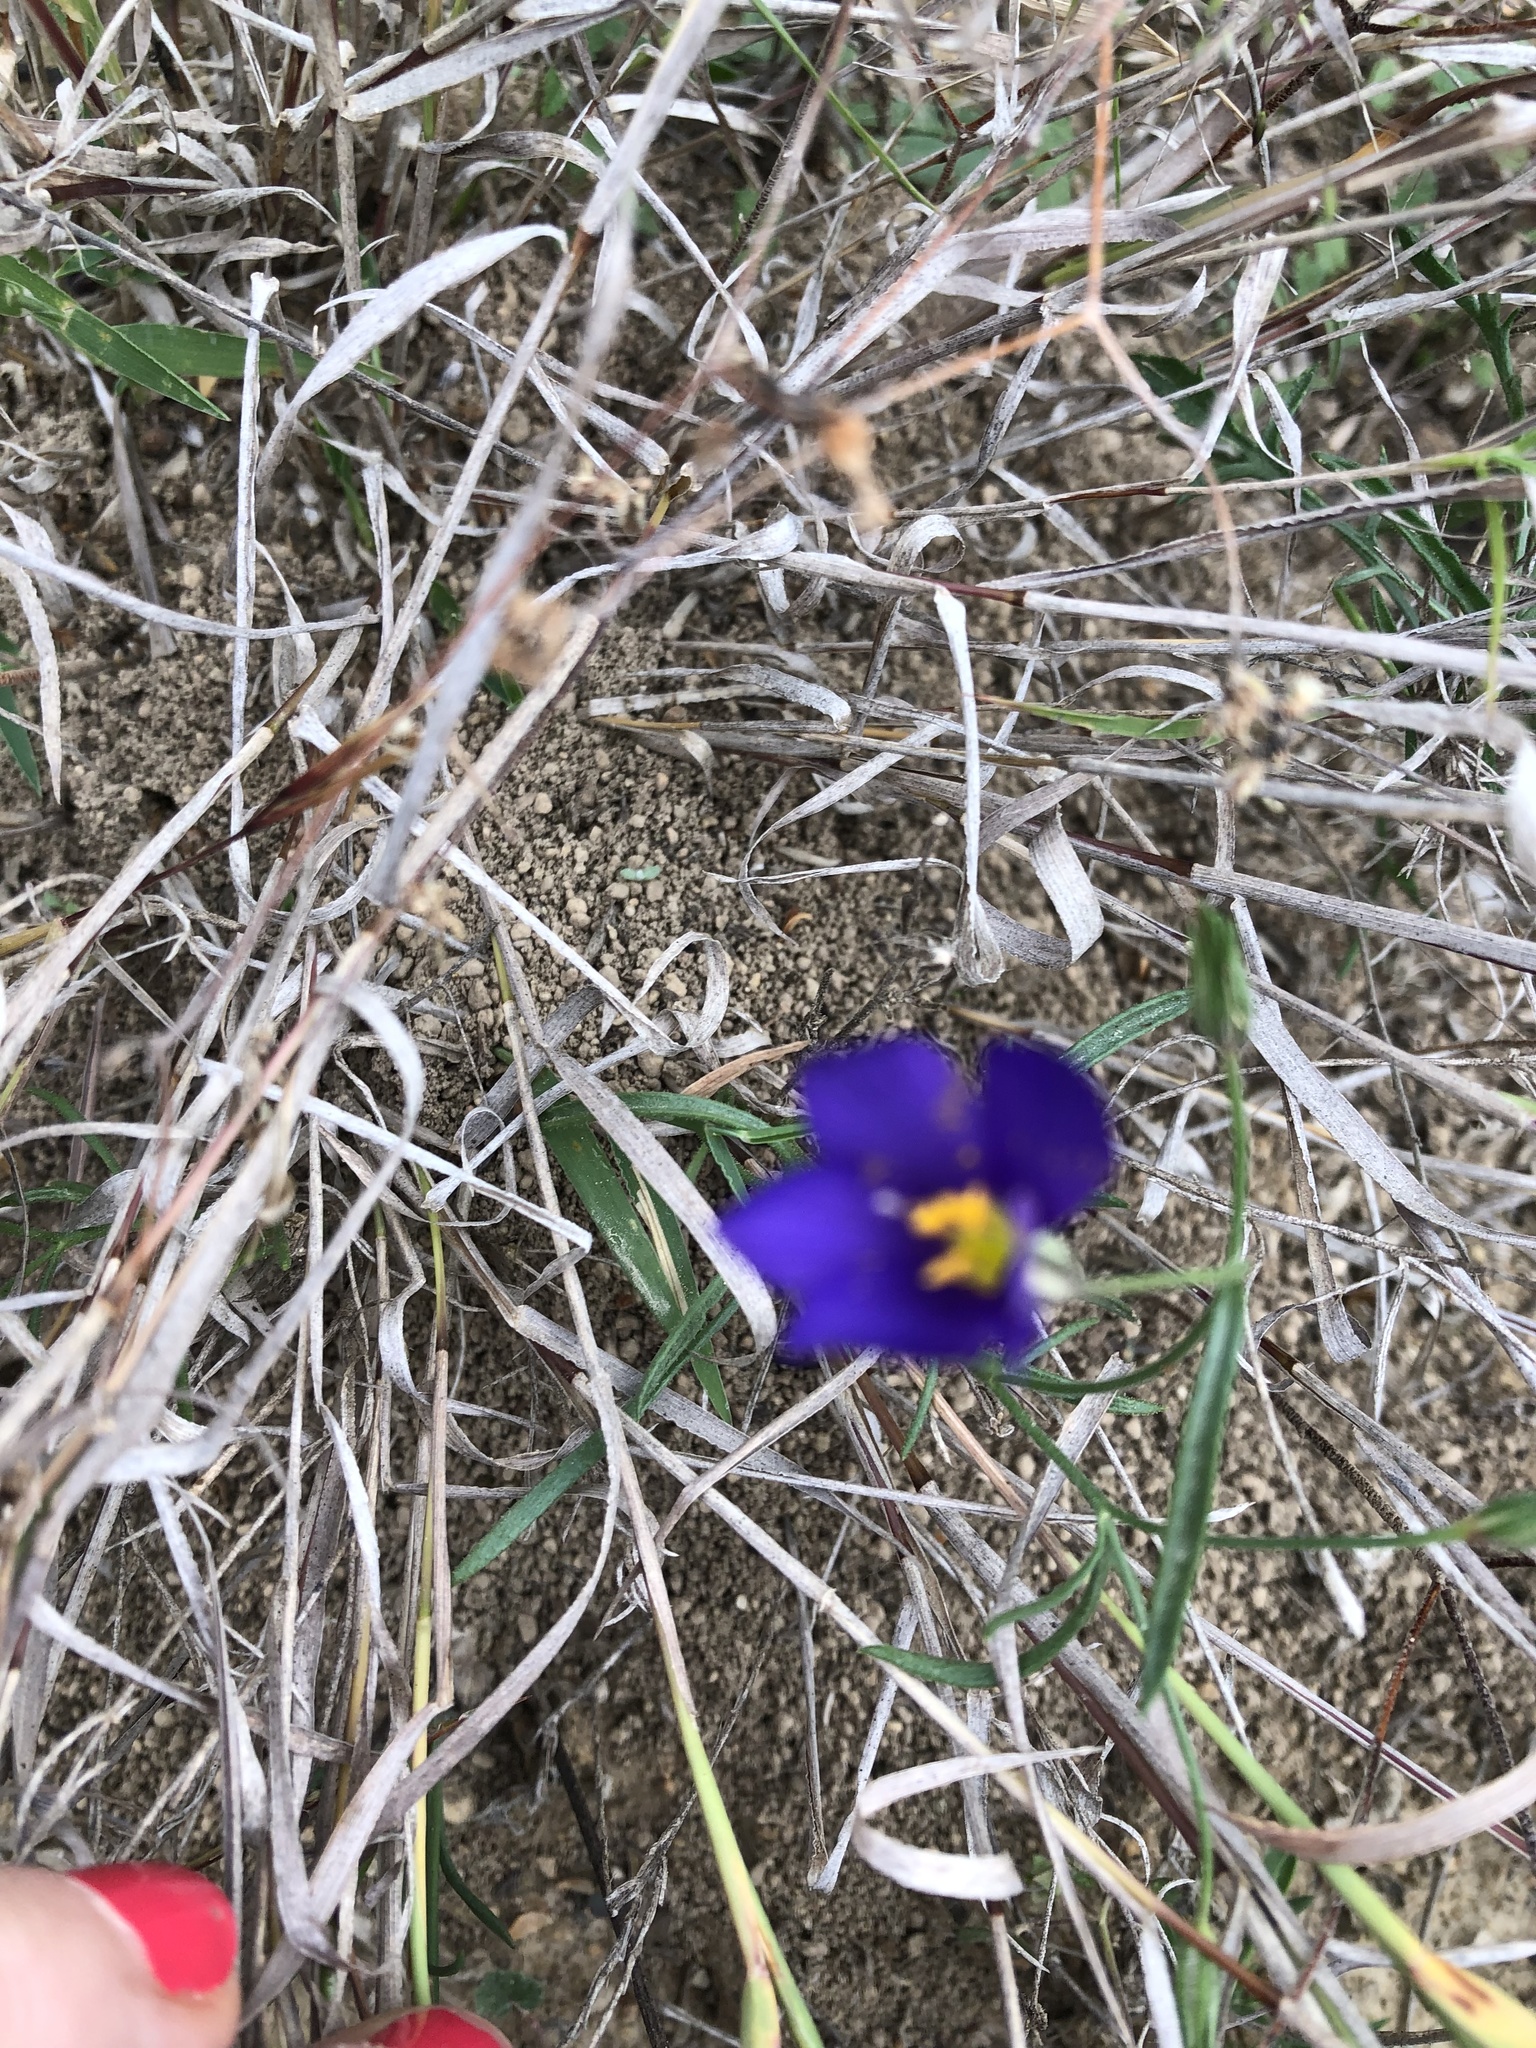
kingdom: Plantae
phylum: Tracheophyta
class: Magnoliopsida
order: Ericales
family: Polemoniaceae
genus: Giliastrum
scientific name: Giliastrum rigidulum
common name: Bluebowls
